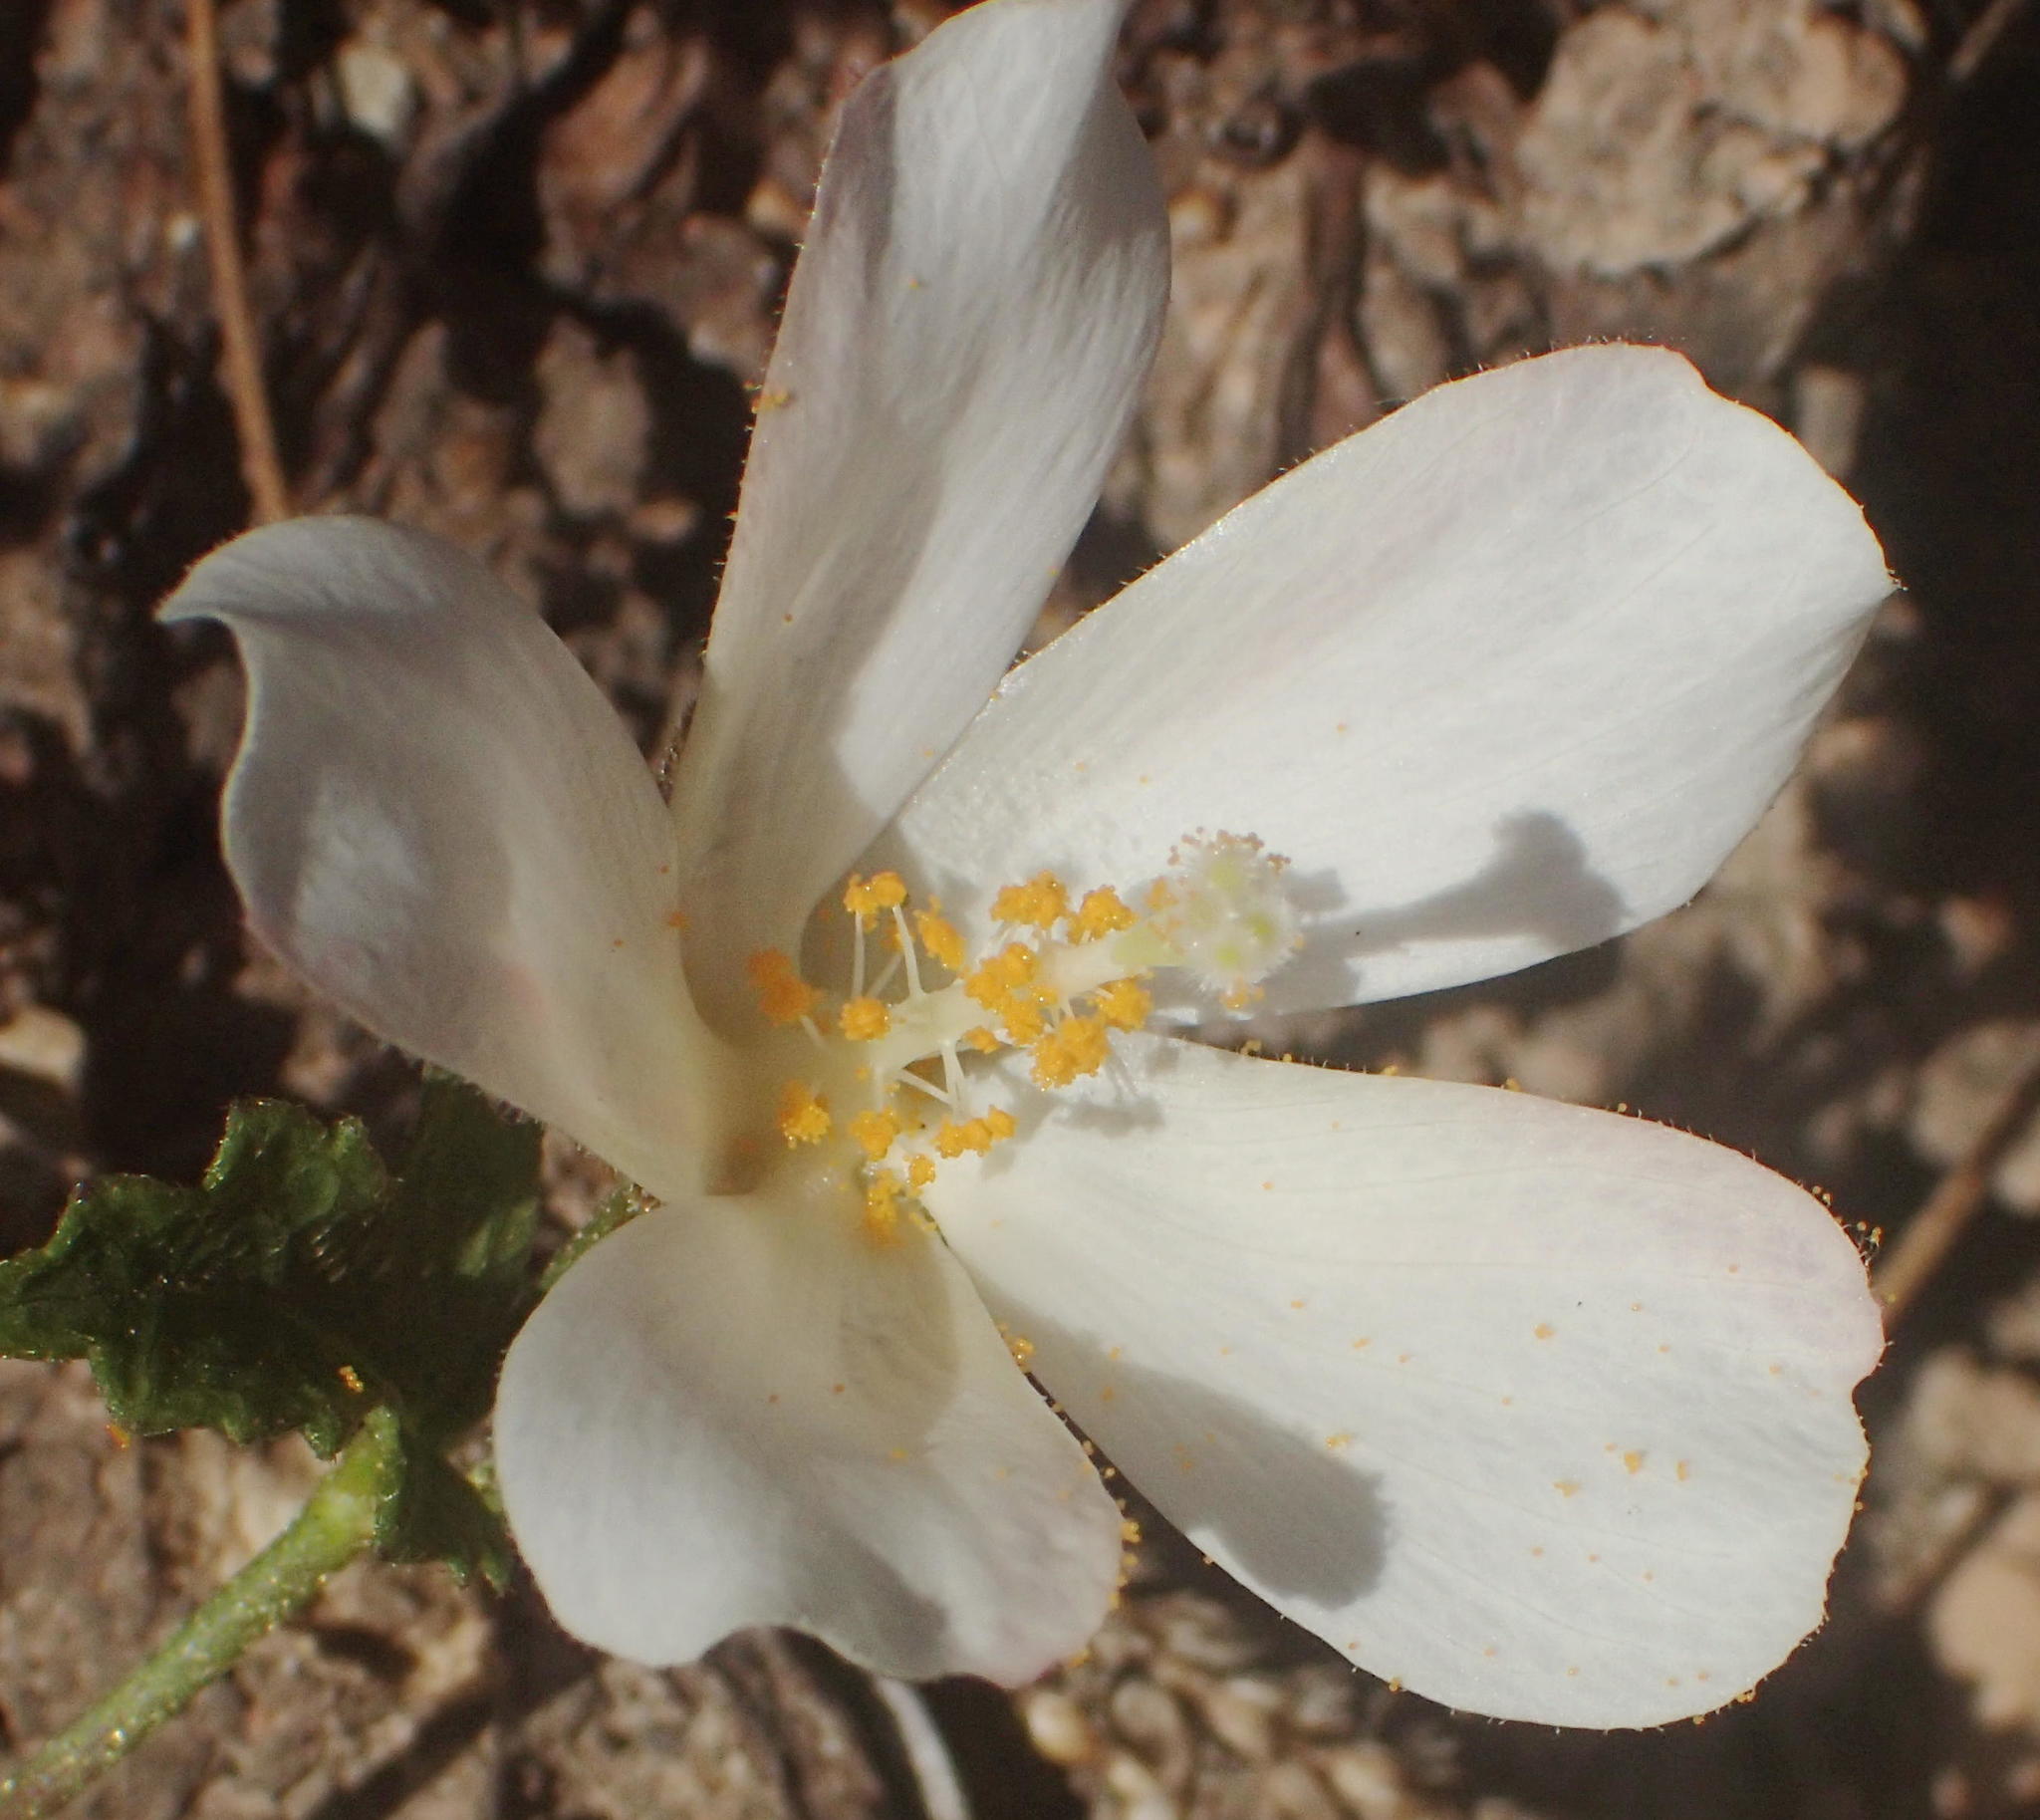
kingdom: Plantae
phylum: Tracheophyta
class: Magnoliopsida
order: Malvales
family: Malvaceae
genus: Hibiscus
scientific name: Hibiscus pusillus
